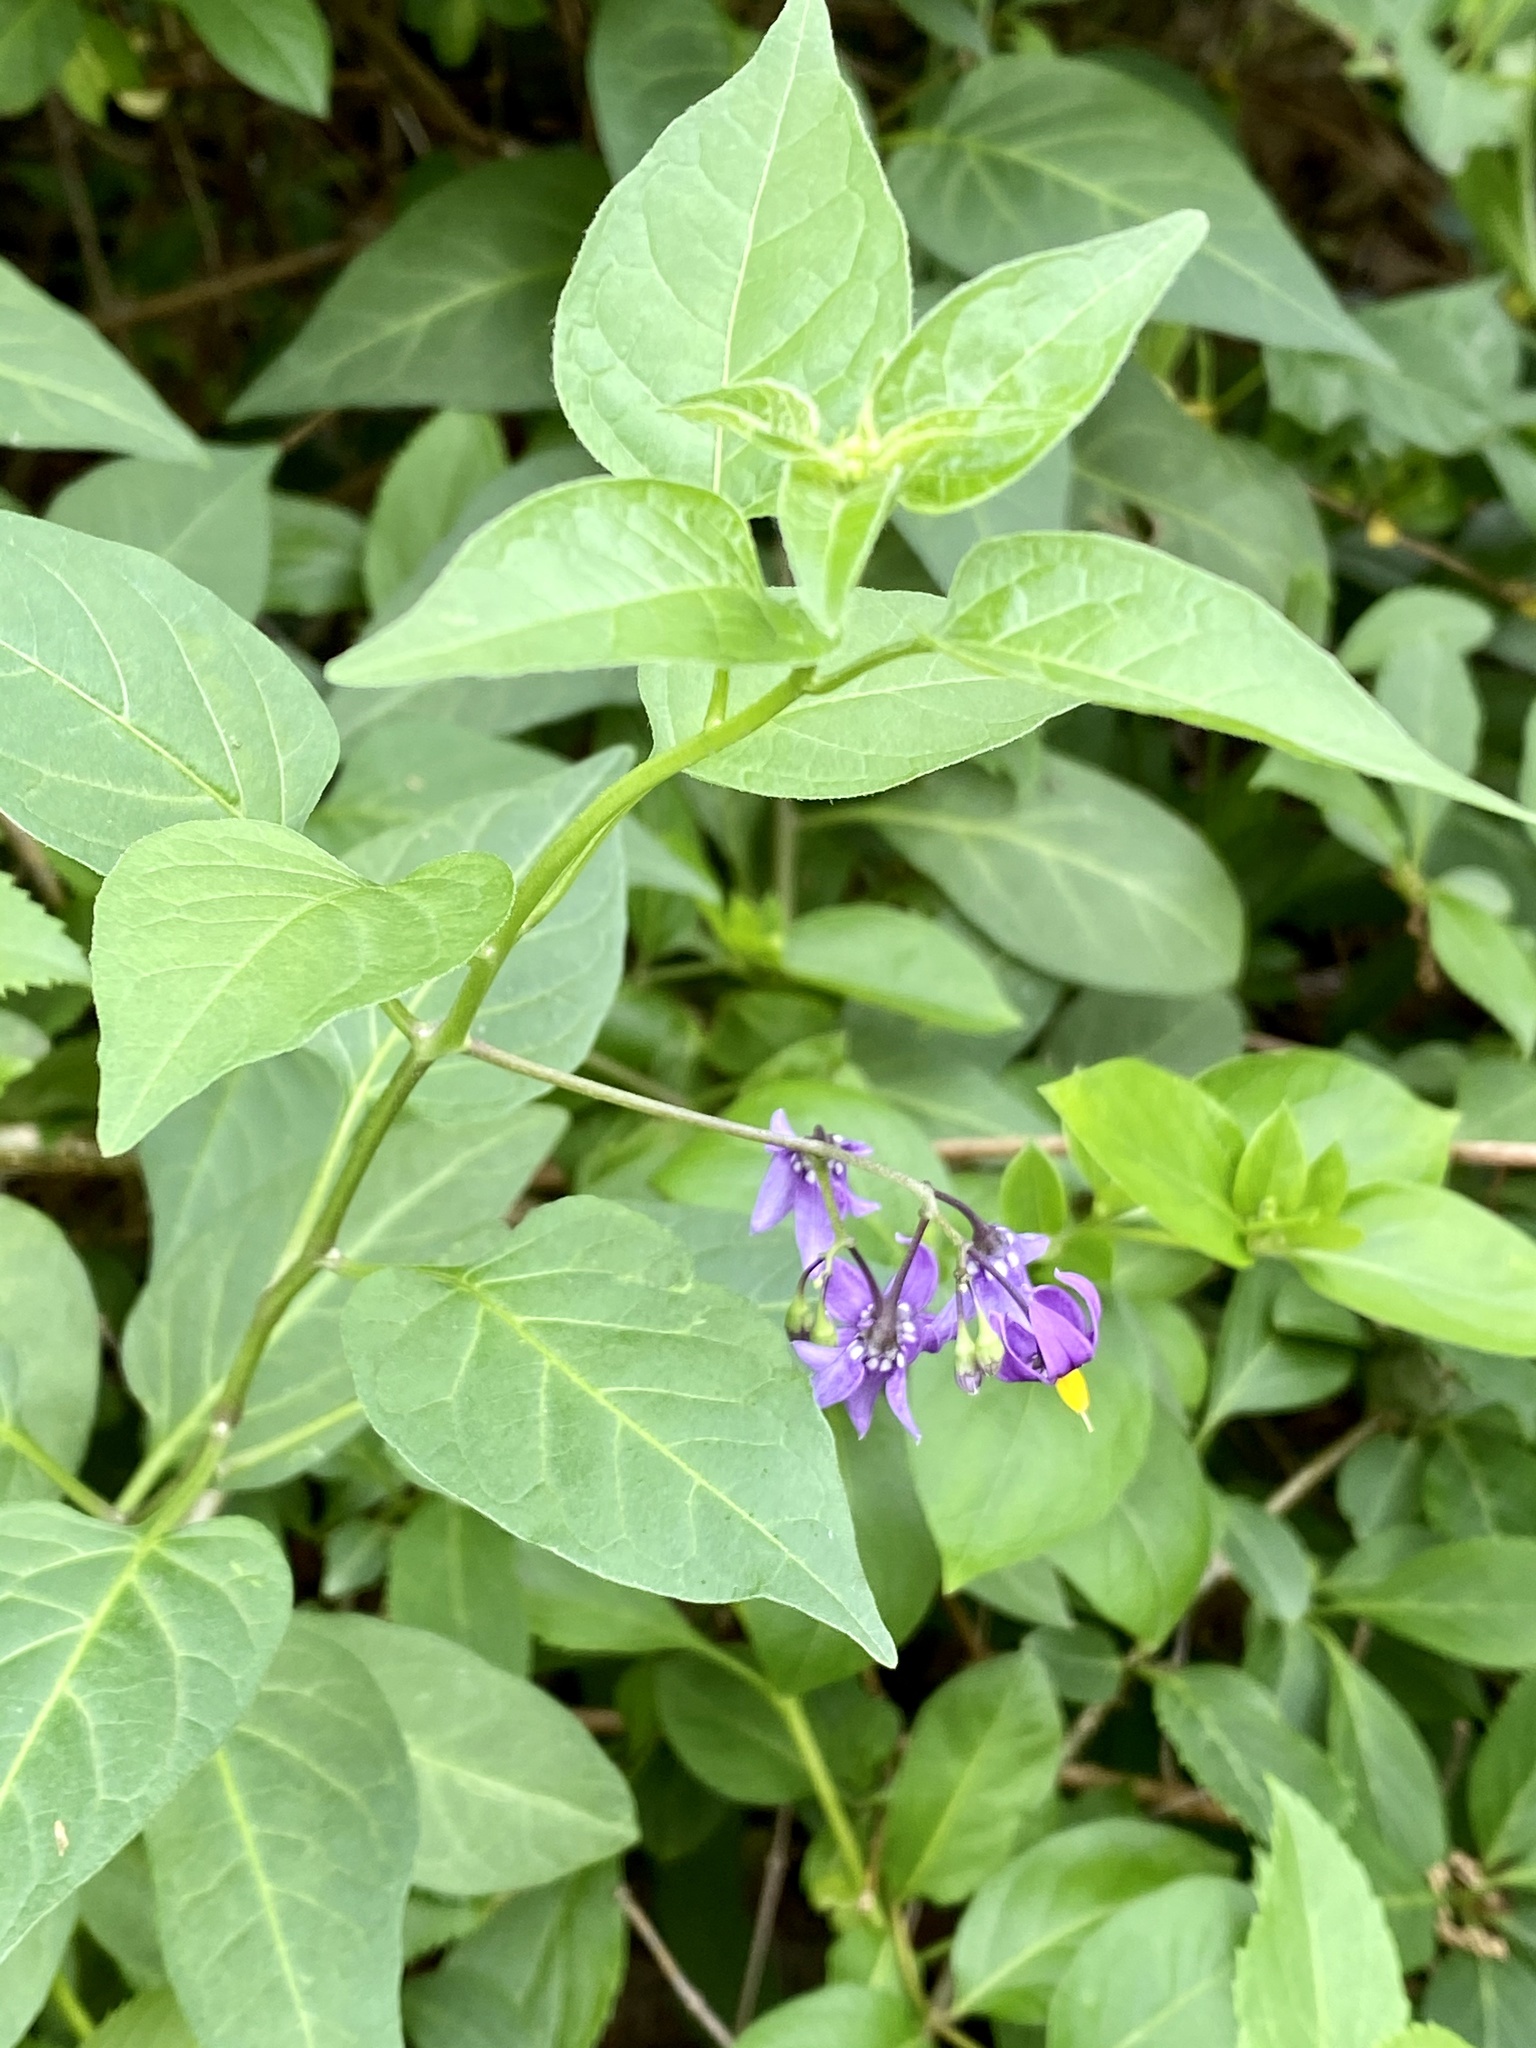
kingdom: Plantae
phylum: Tracheophyta
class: Magnoliopsida
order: Solanales
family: Solanaceae
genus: Solanum
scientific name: Solanum dulcamara
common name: Climbing nightshade
